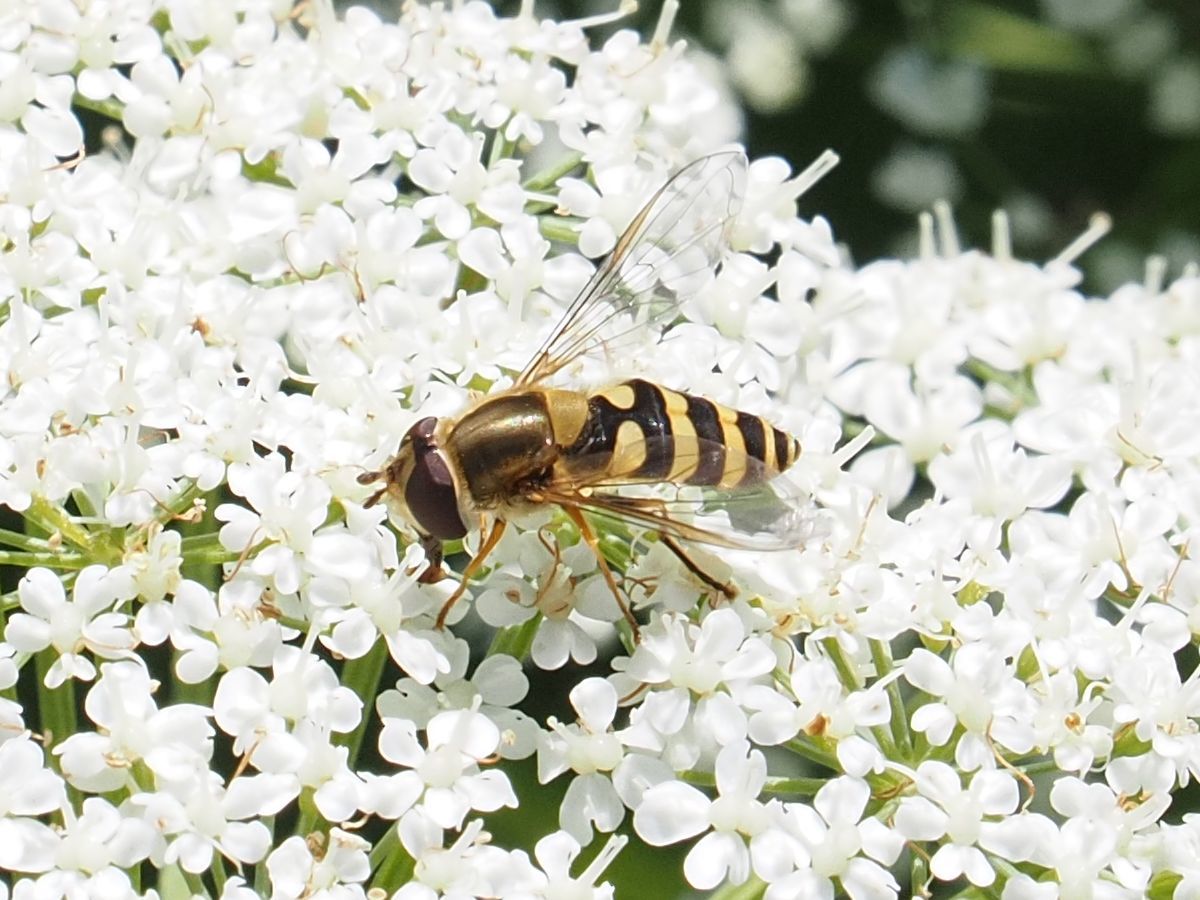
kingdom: Animalia
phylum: Arthropoda
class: Insecta
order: Diptera
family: Syrphidae
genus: Syrphus
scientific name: Syrphus
